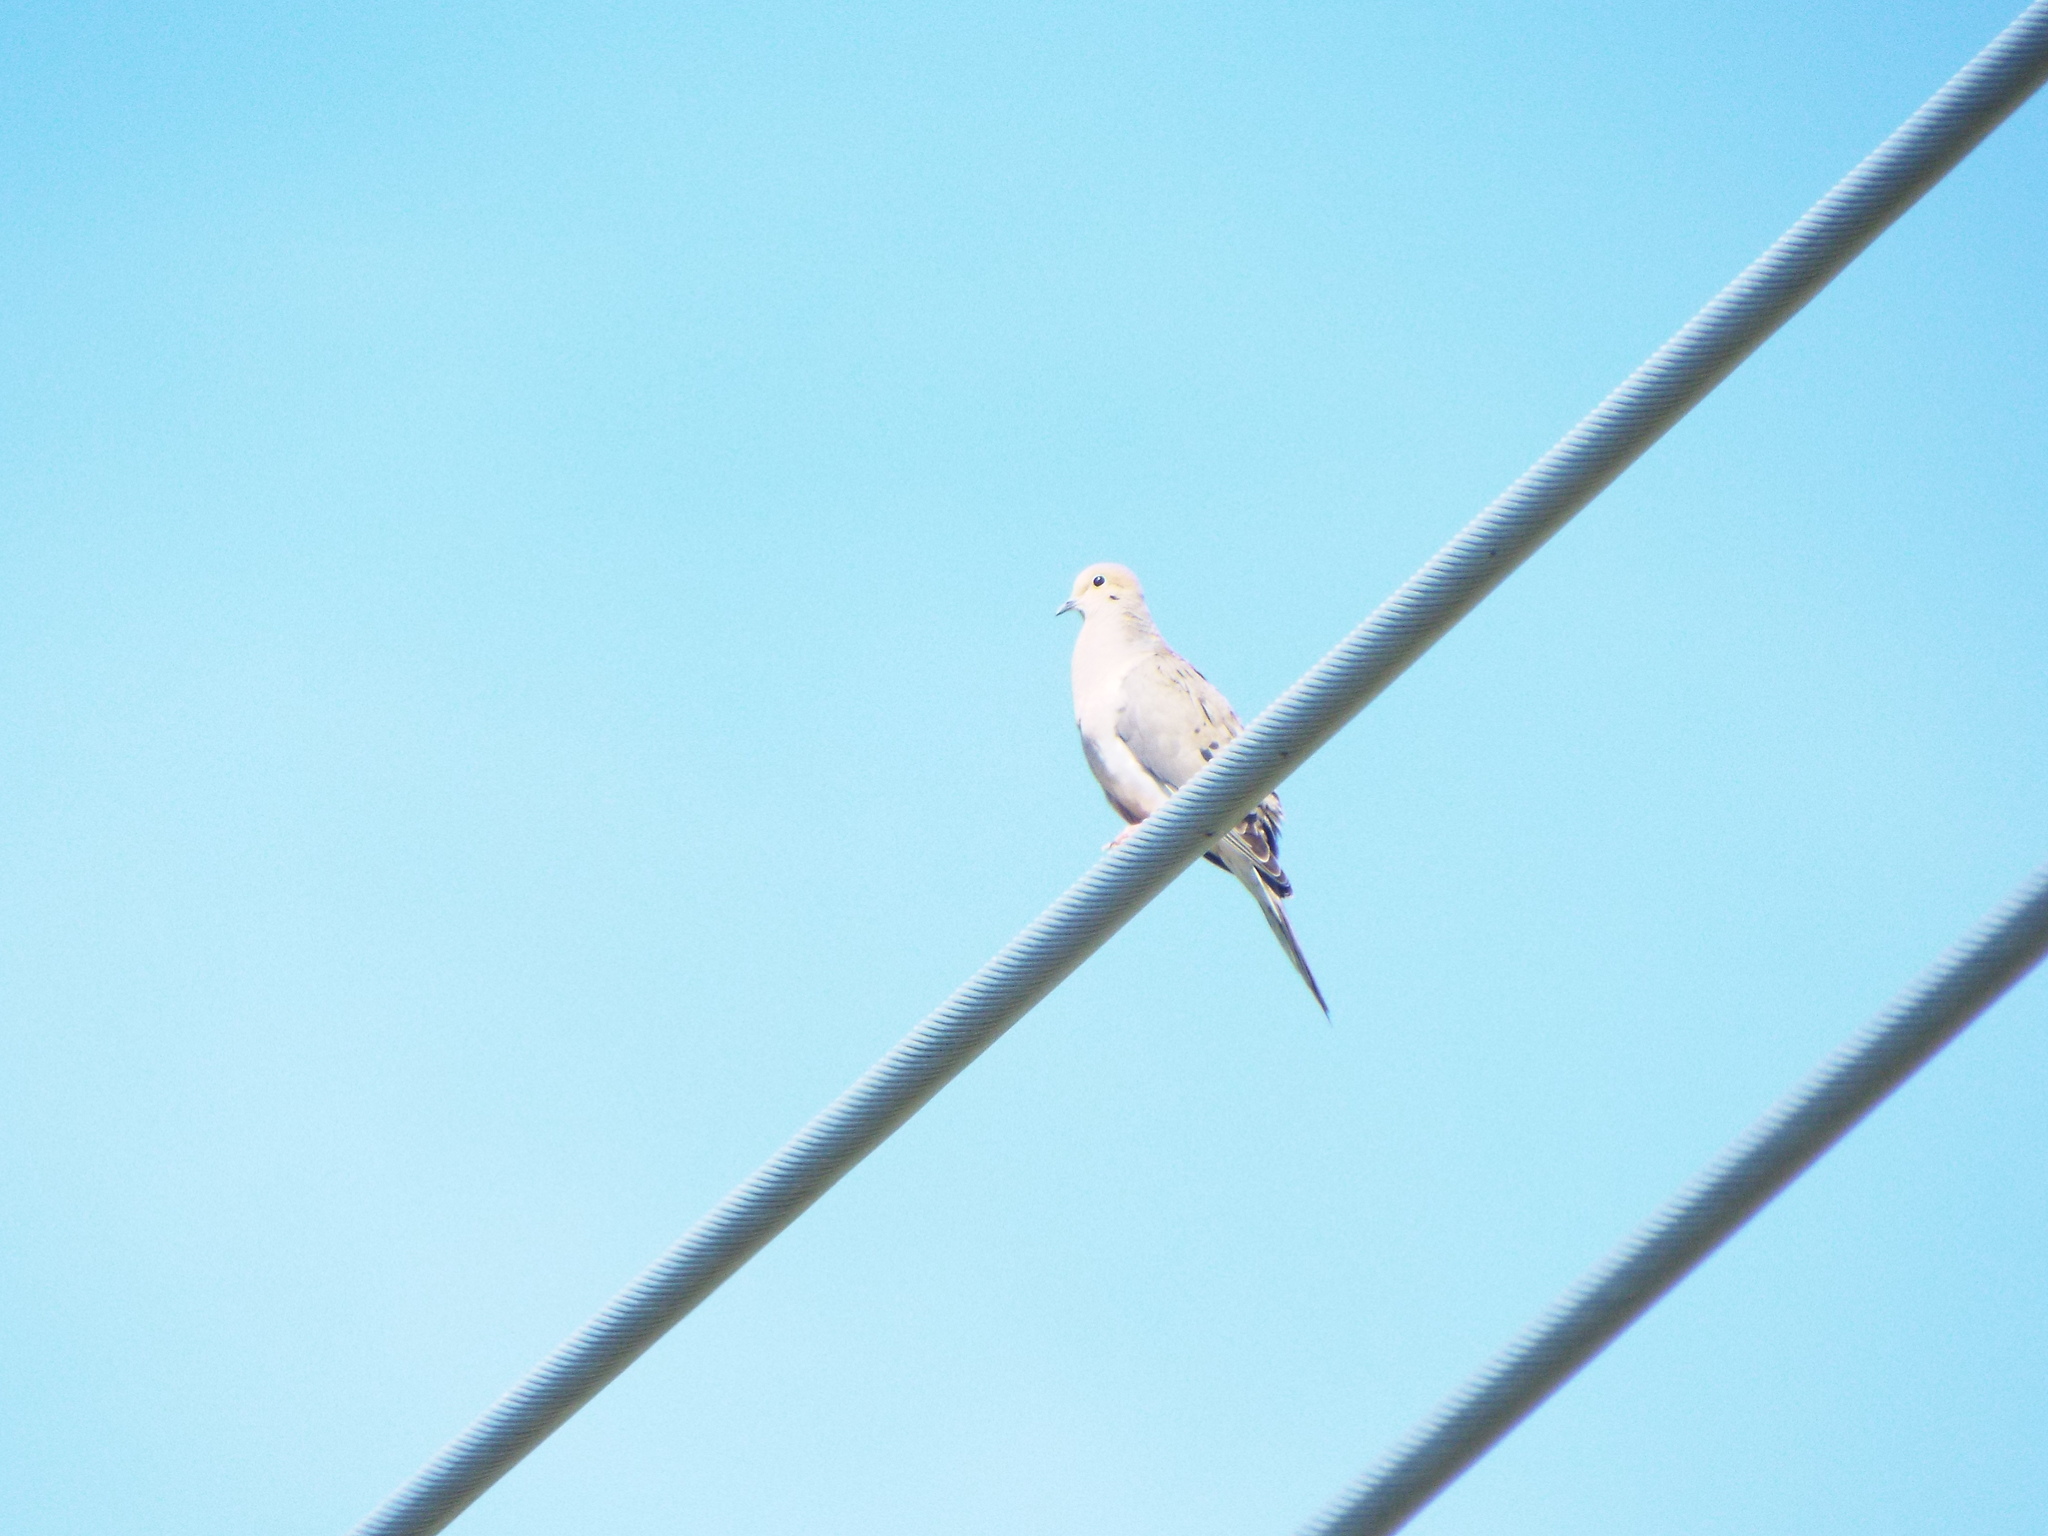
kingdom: Animalia
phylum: Chordata
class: Aves
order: Columbiformes
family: Columbidae
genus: Zenaida
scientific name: Zenaida macroura
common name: Mourning dove
